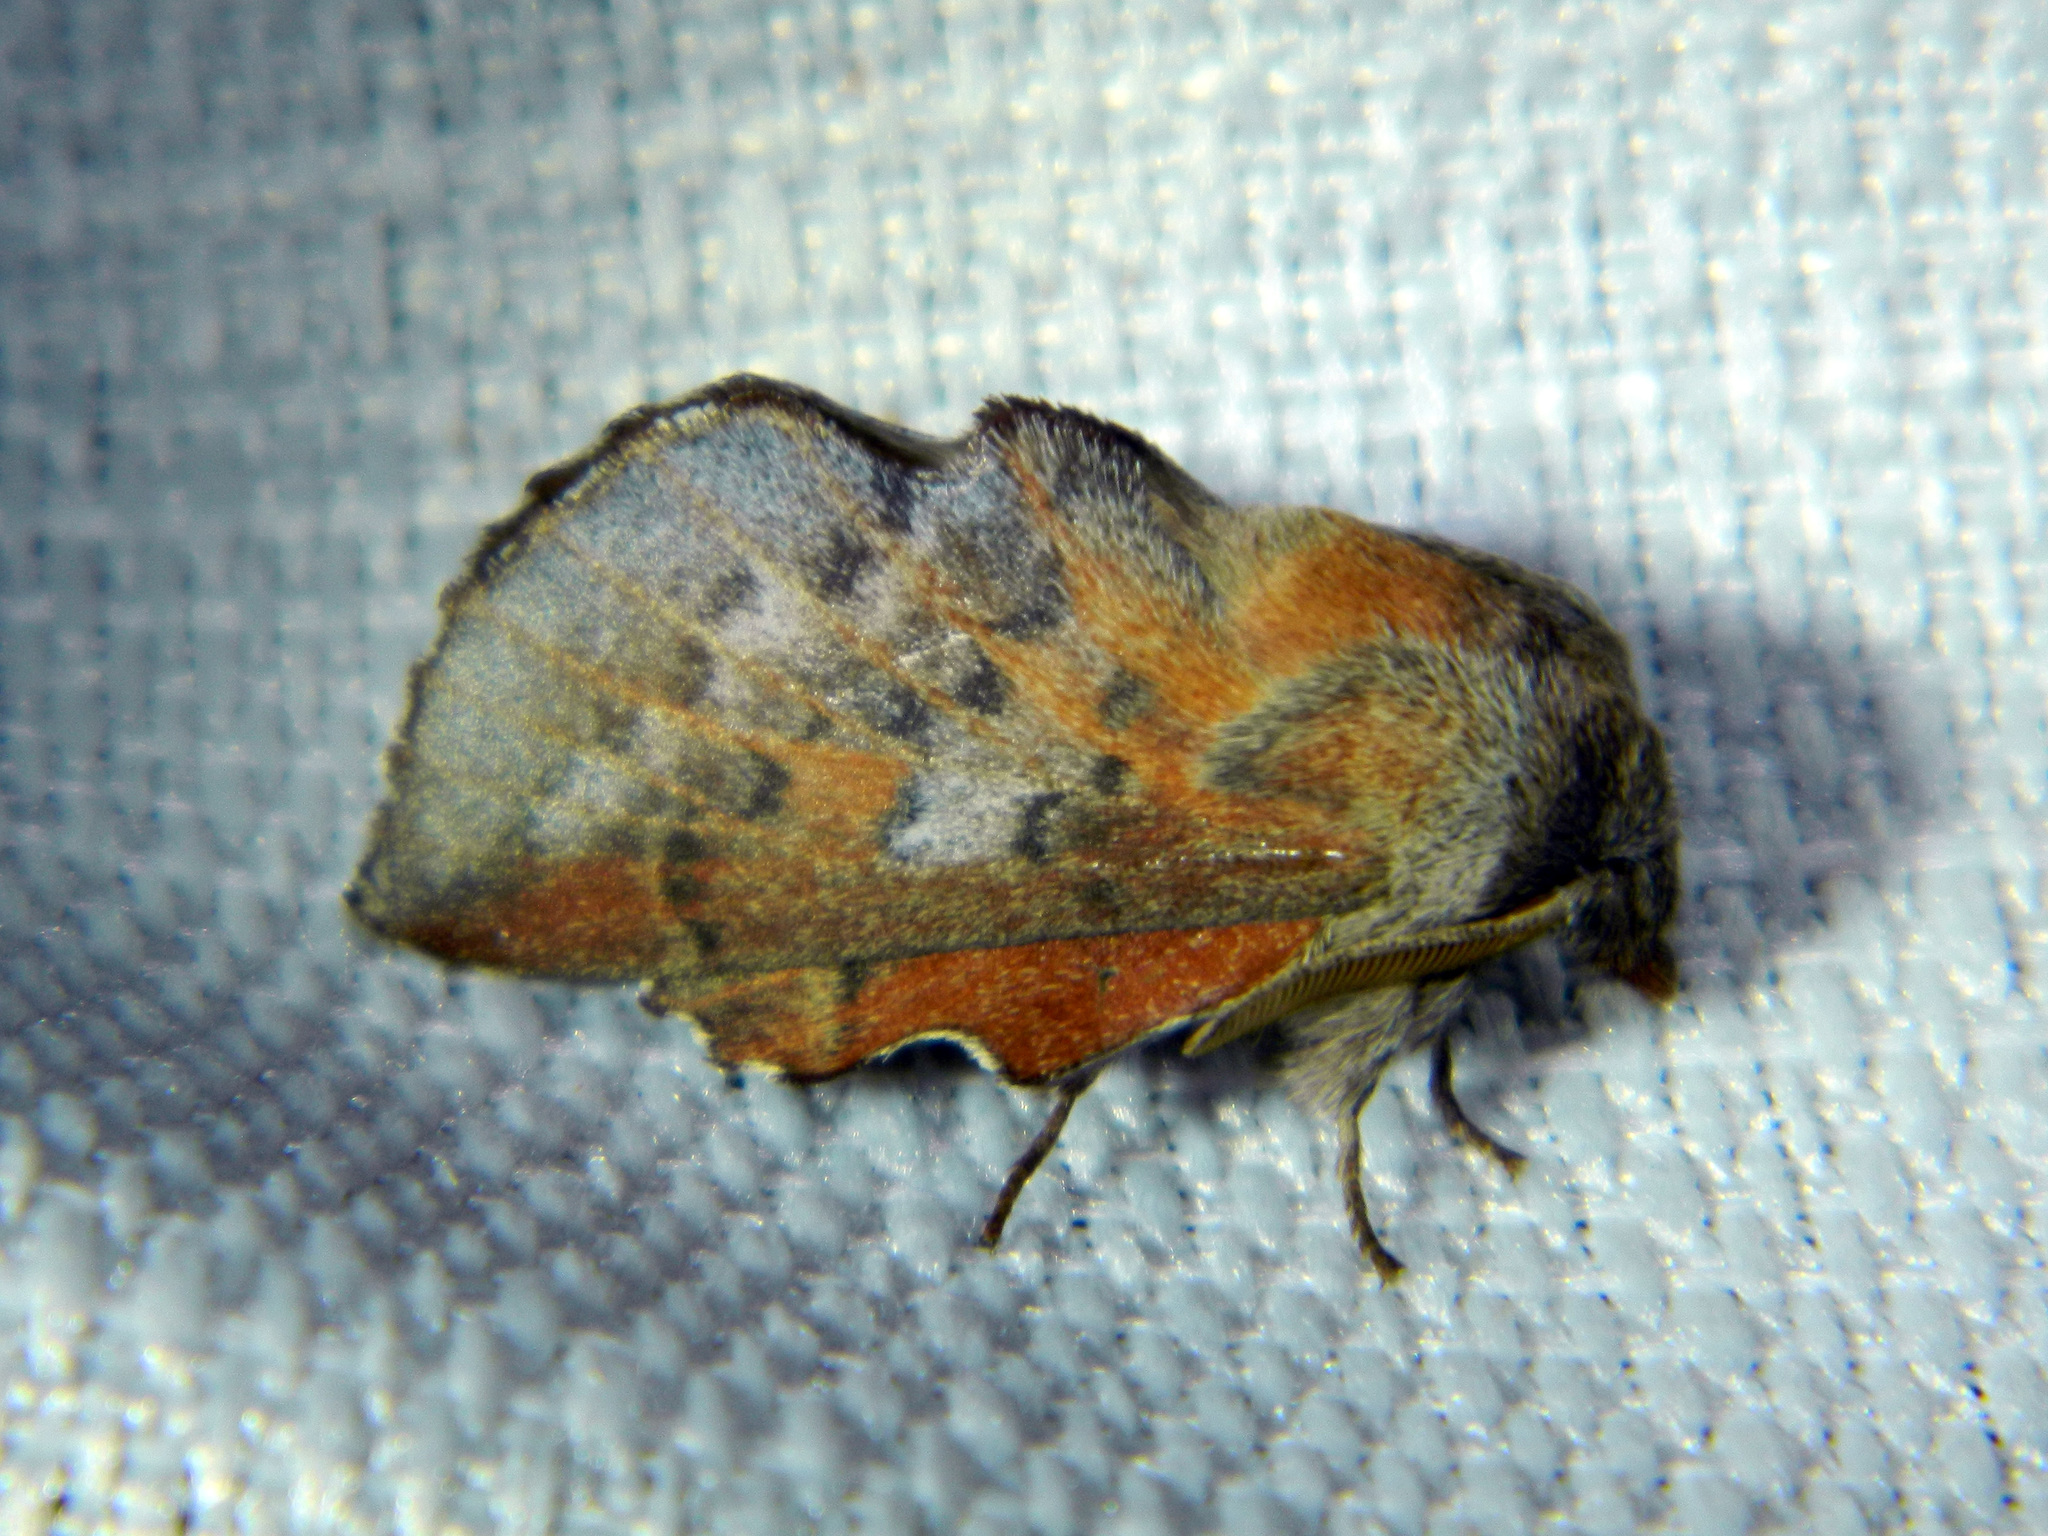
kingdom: Animalia
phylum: Arthropoda
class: Insecta
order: Lepidoptera
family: Lasiocampidae
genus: Phyllodesma
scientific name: Phyllodesma americana
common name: American lappet moth
